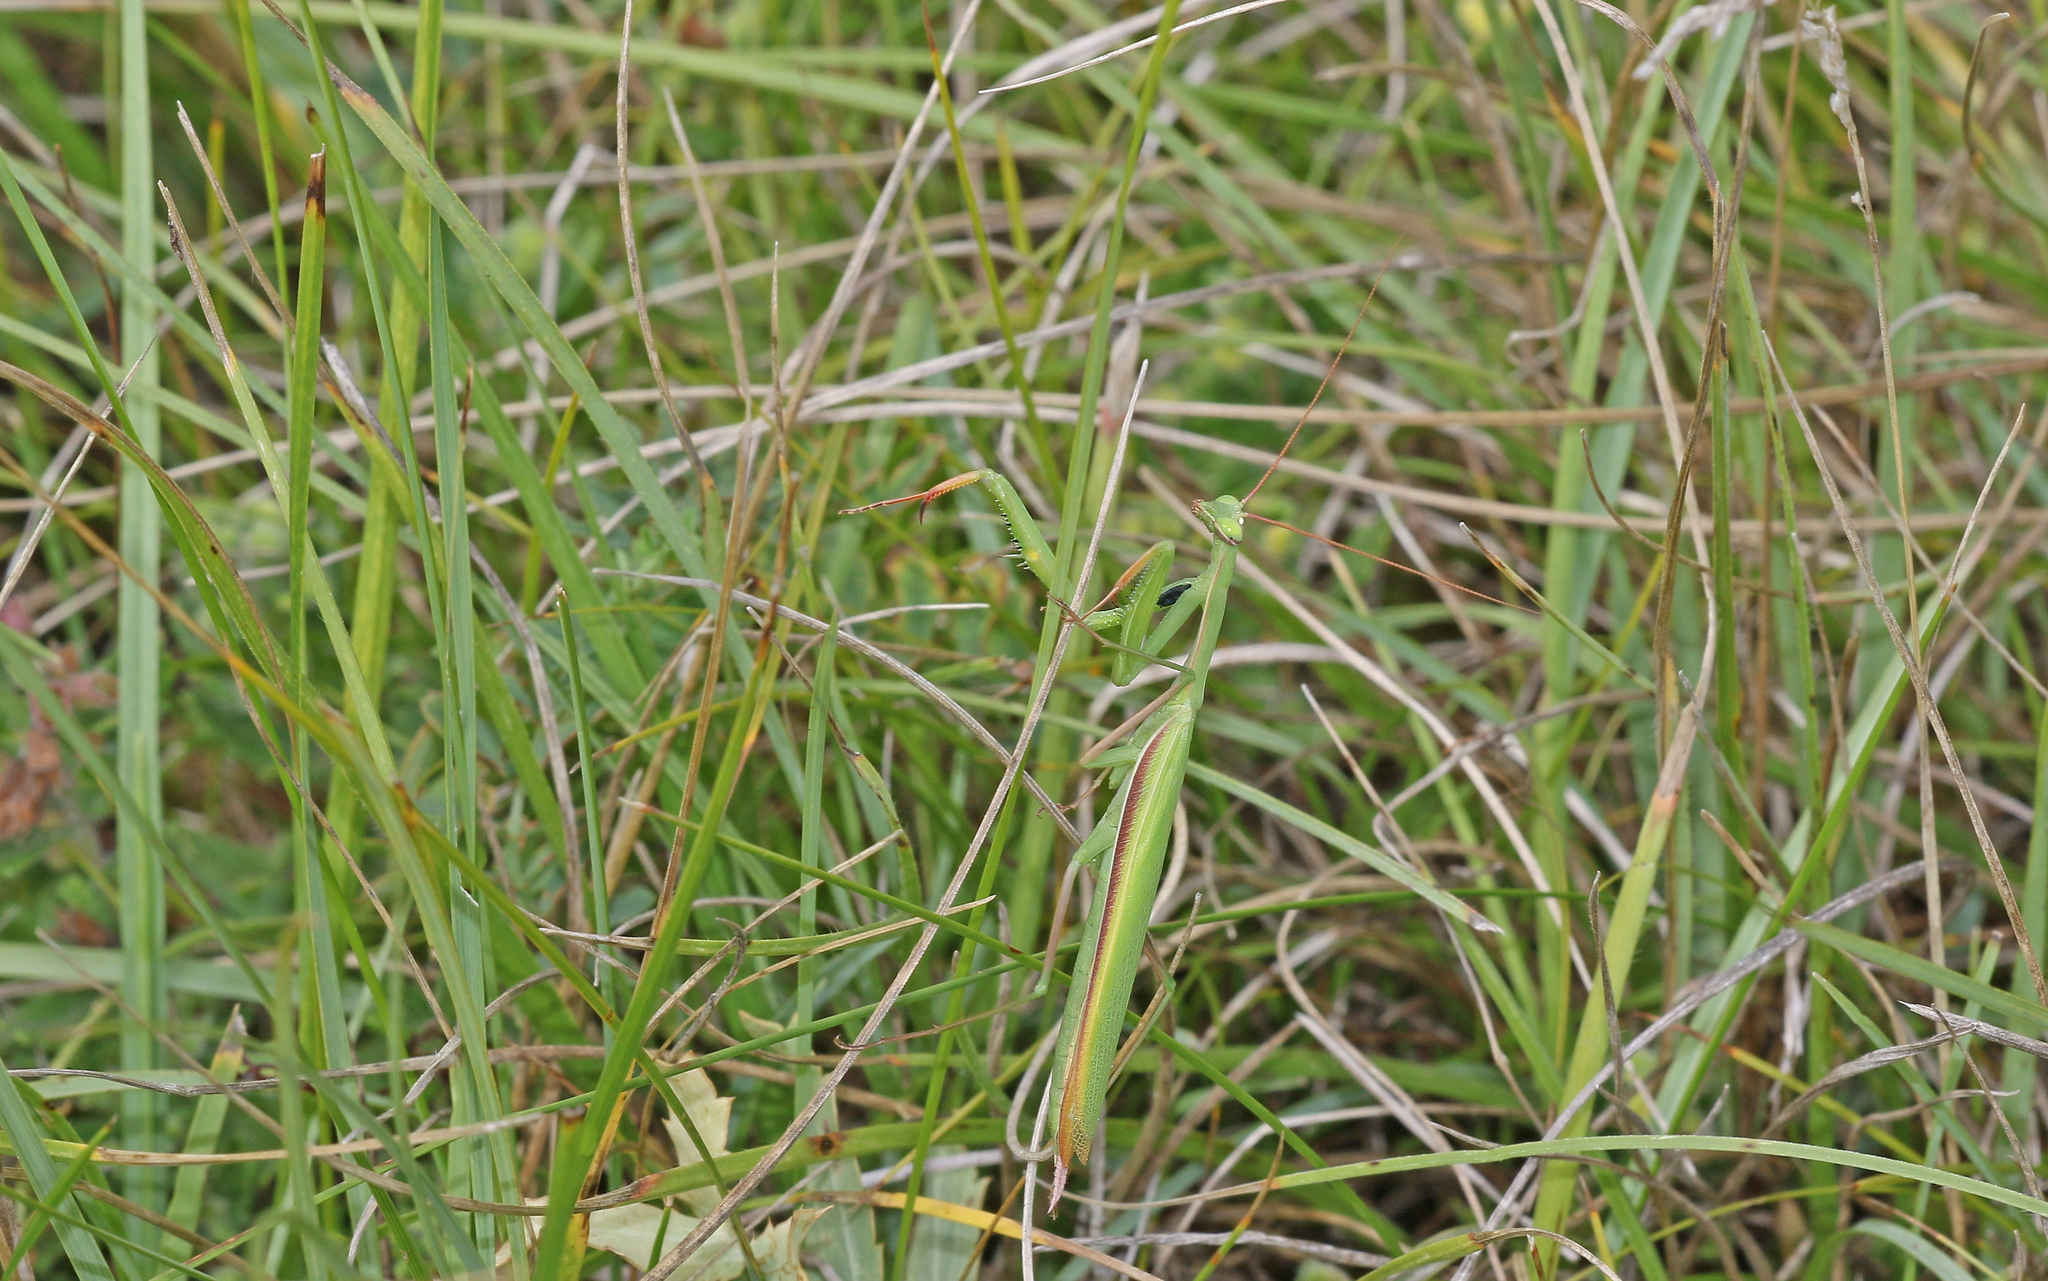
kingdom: Animalia
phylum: Arthropoda
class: Insecta
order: Mantodea
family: Mantidae
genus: Mantis
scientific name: Mantis religiosa
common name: Praying mantis
